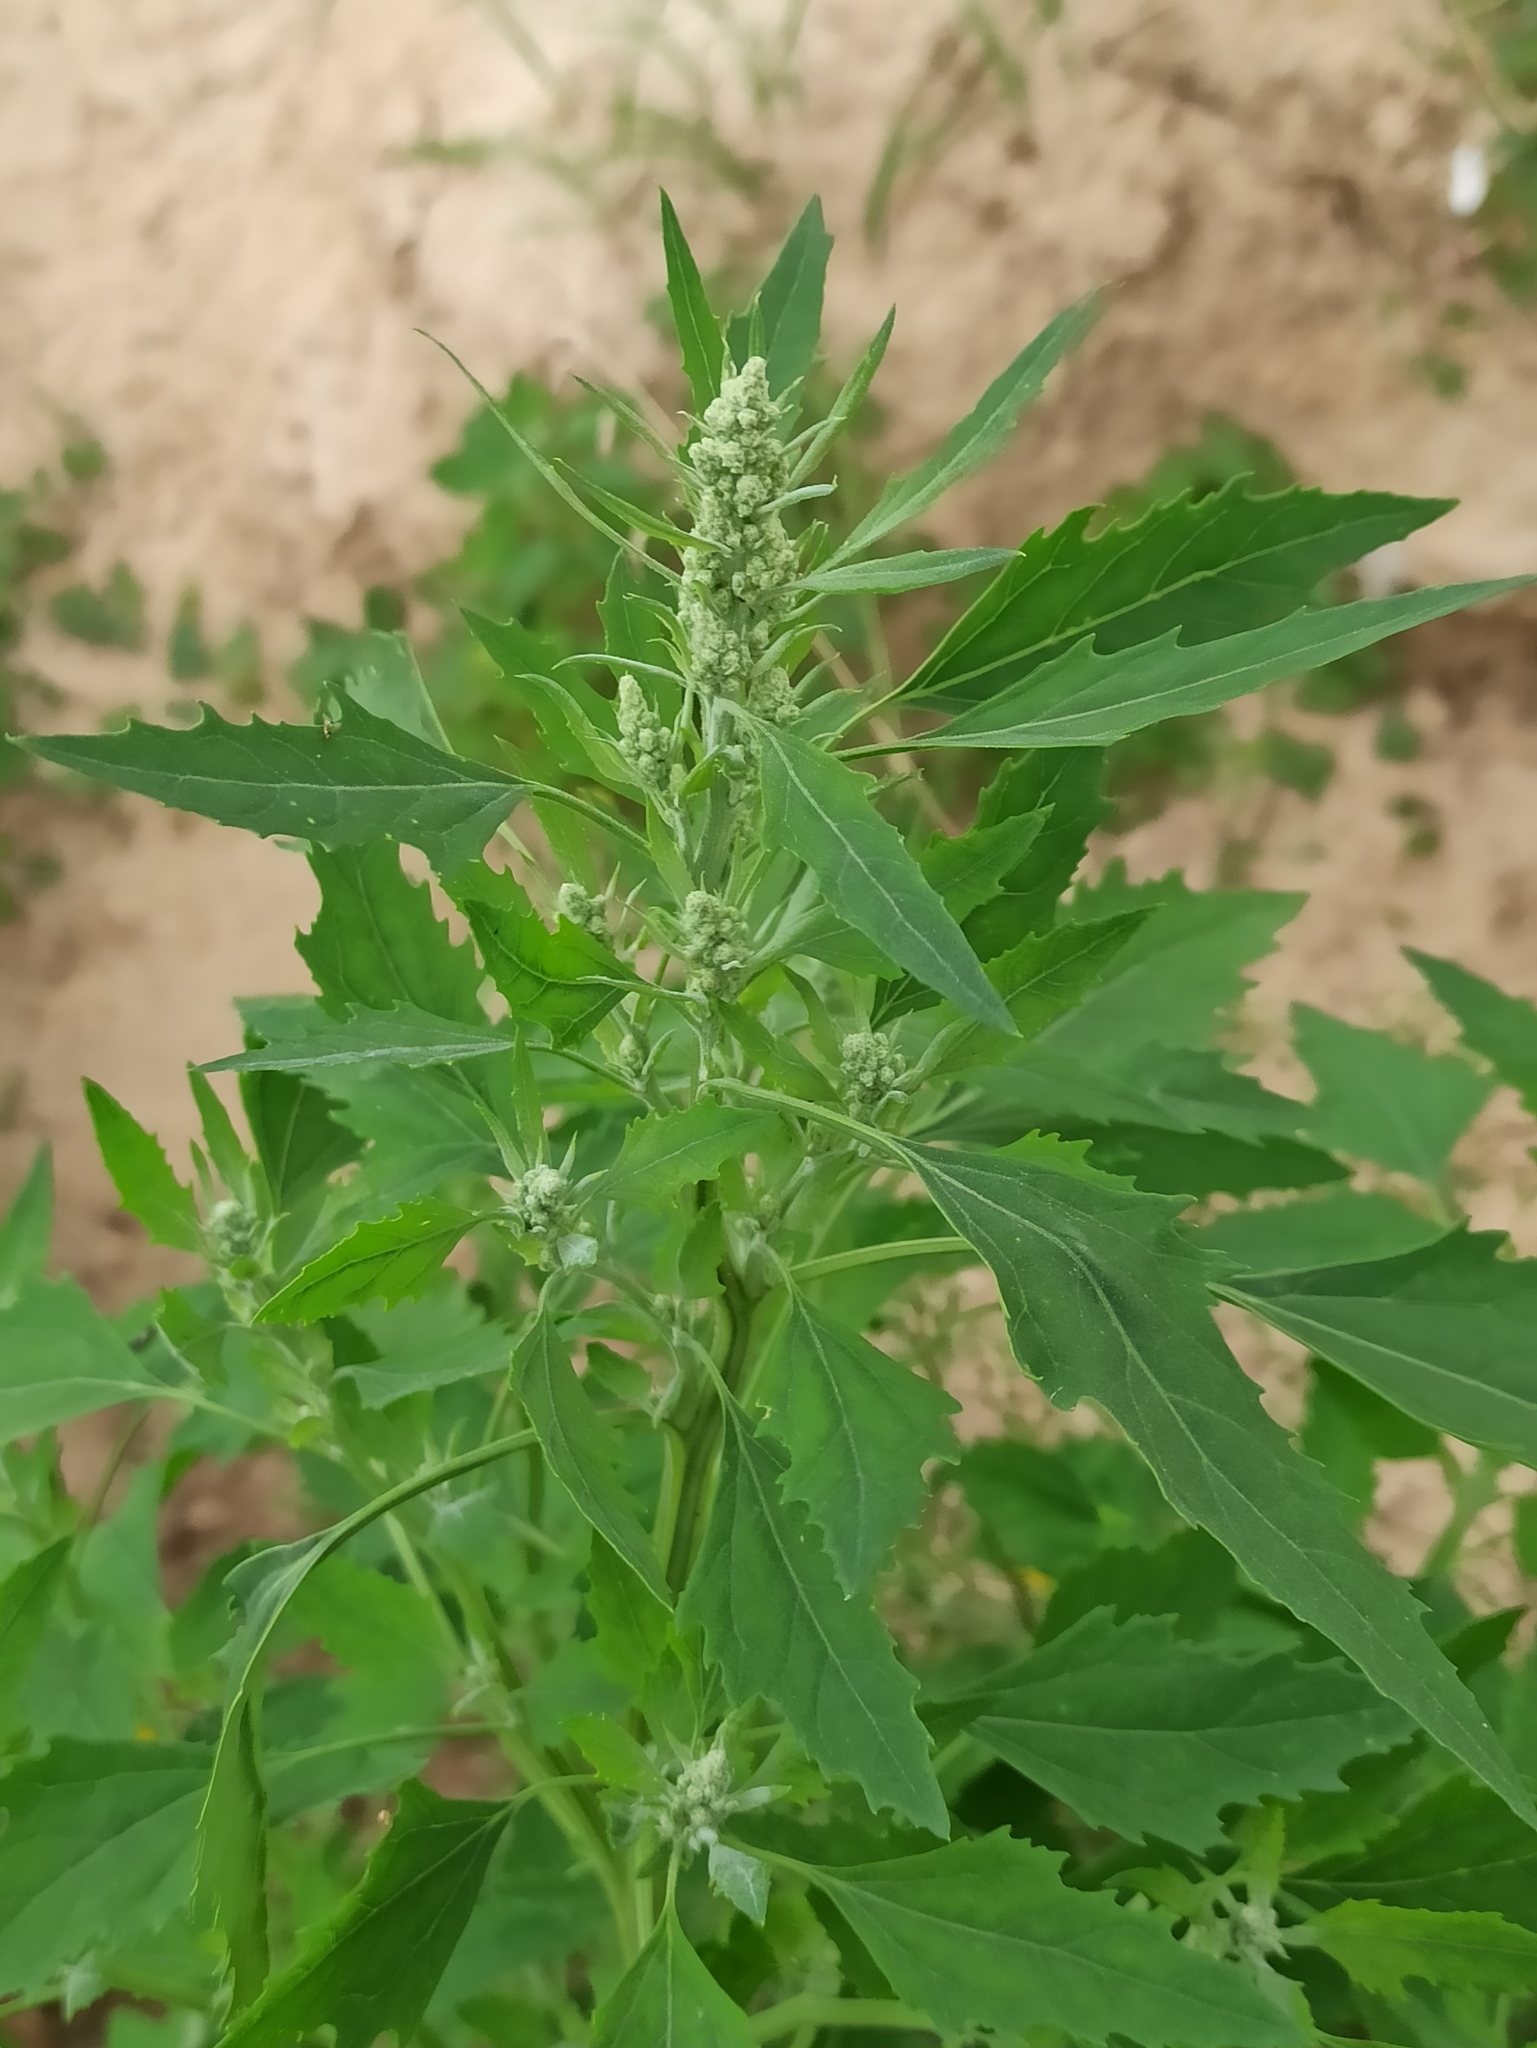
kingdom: Plantae
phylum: Tracheophyta
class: Magnoliopsida
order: Caryophyllales
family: Amaranthaceae
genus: Chenopodium
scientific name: Chenopodium album
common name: Fat-hen
